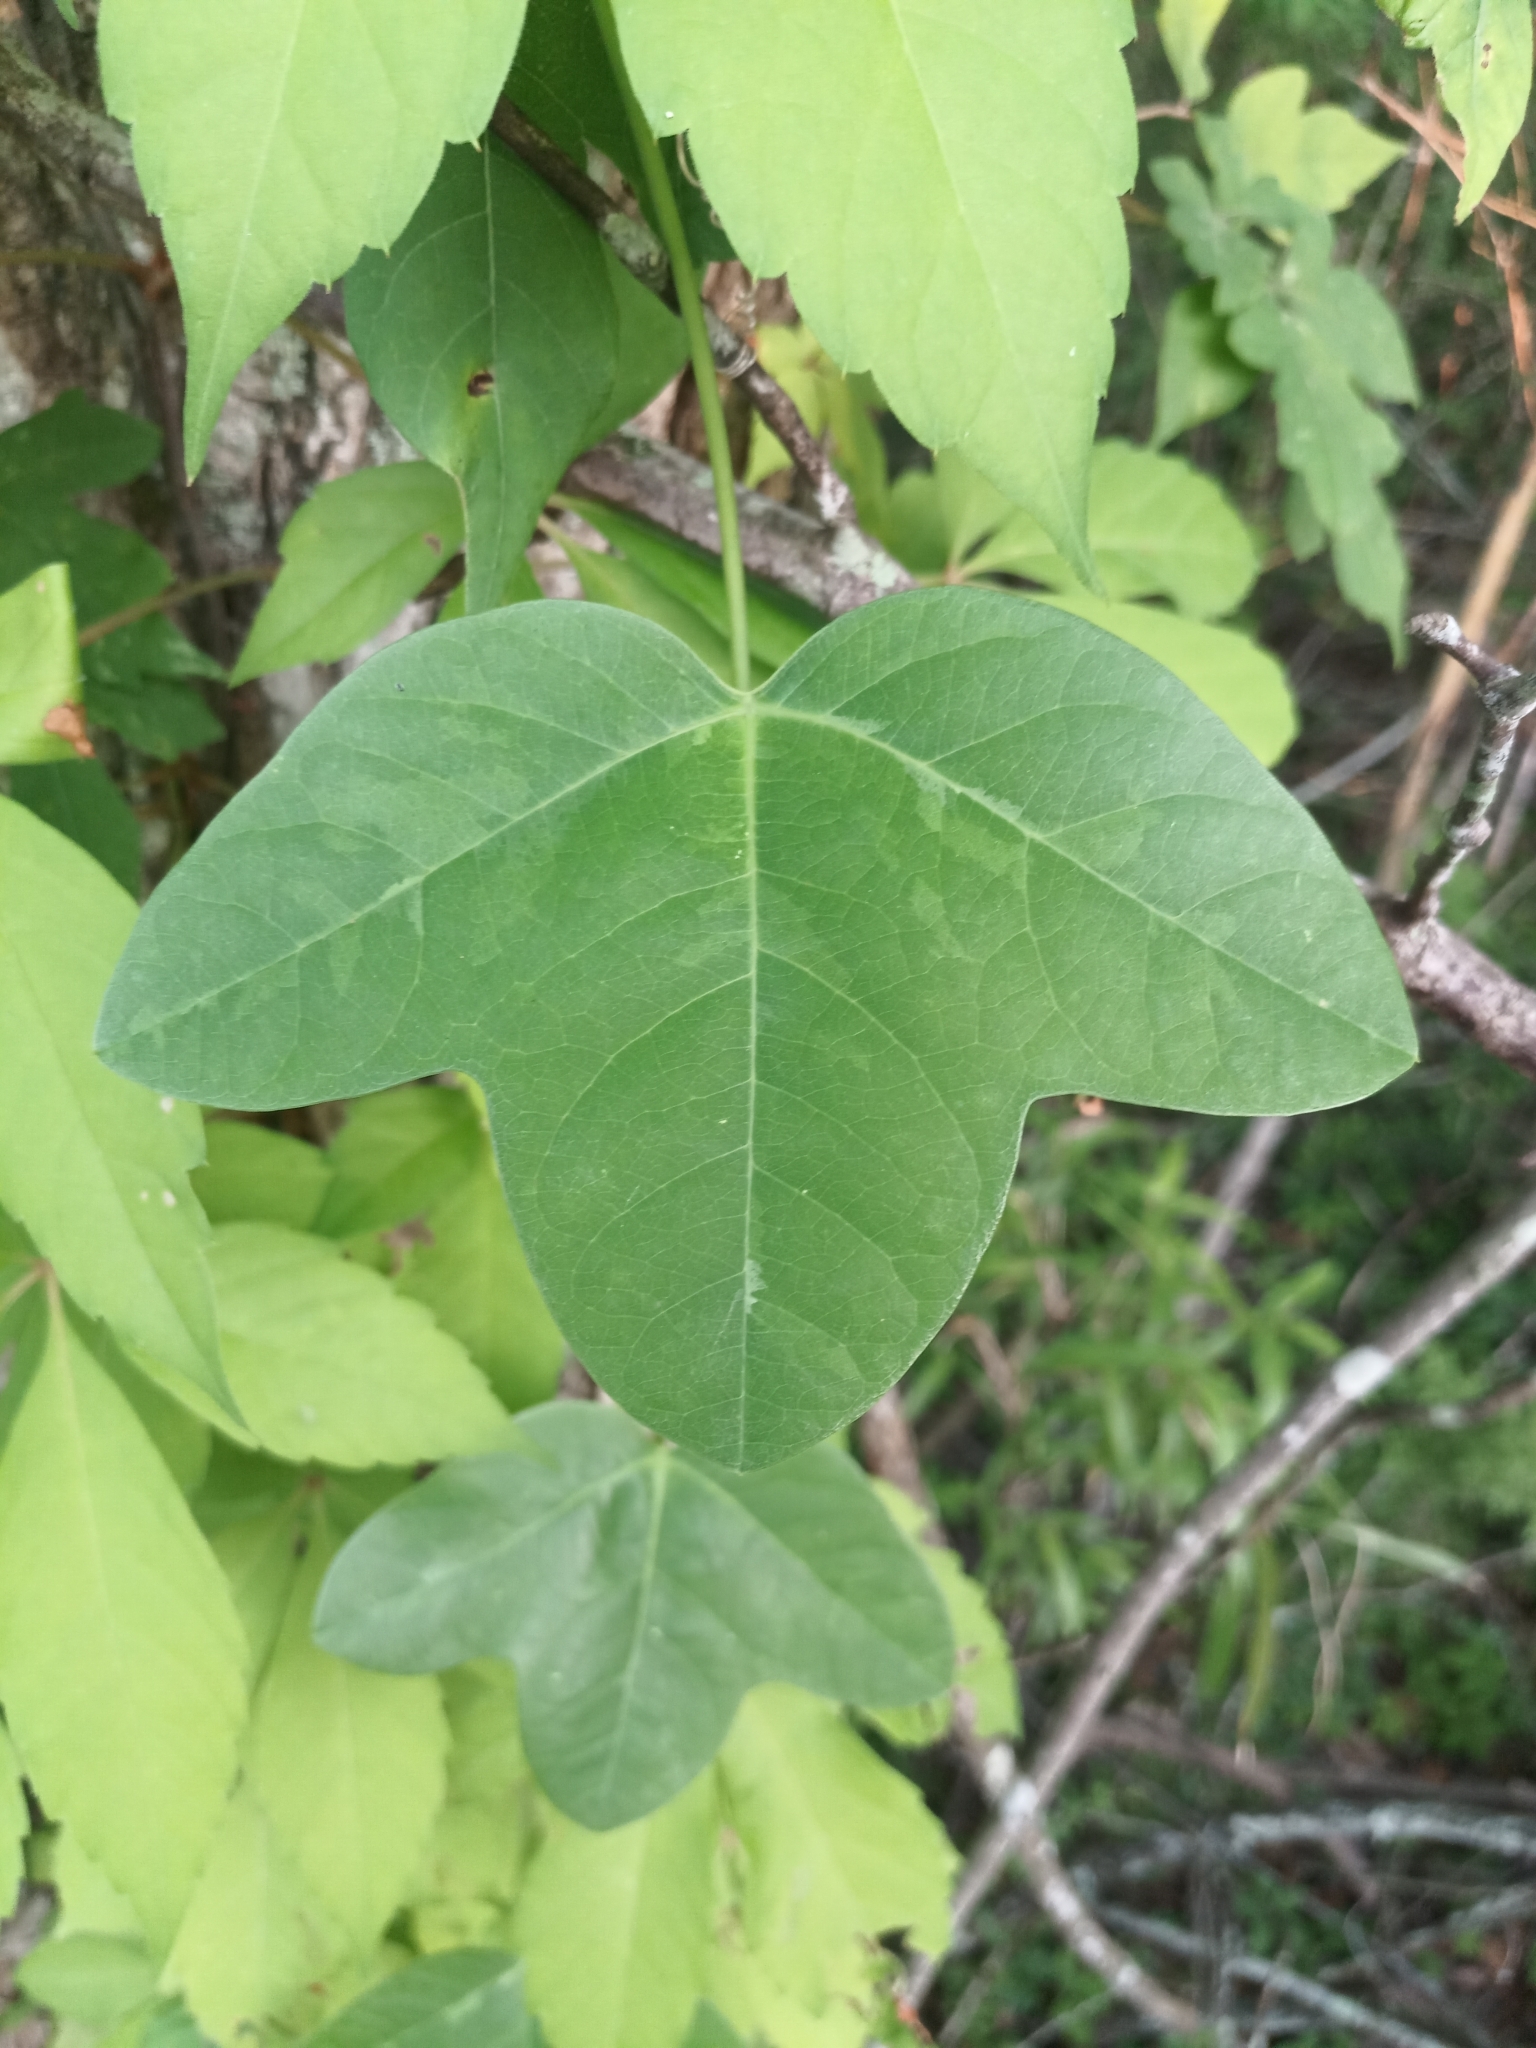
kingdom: Plantae
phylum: Tracheophyta
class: Magnoliopsida
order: Malpighiales
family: Passifloraceae
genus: Passiflora
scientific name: Passiflora lutea
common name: Yellow passionflower
